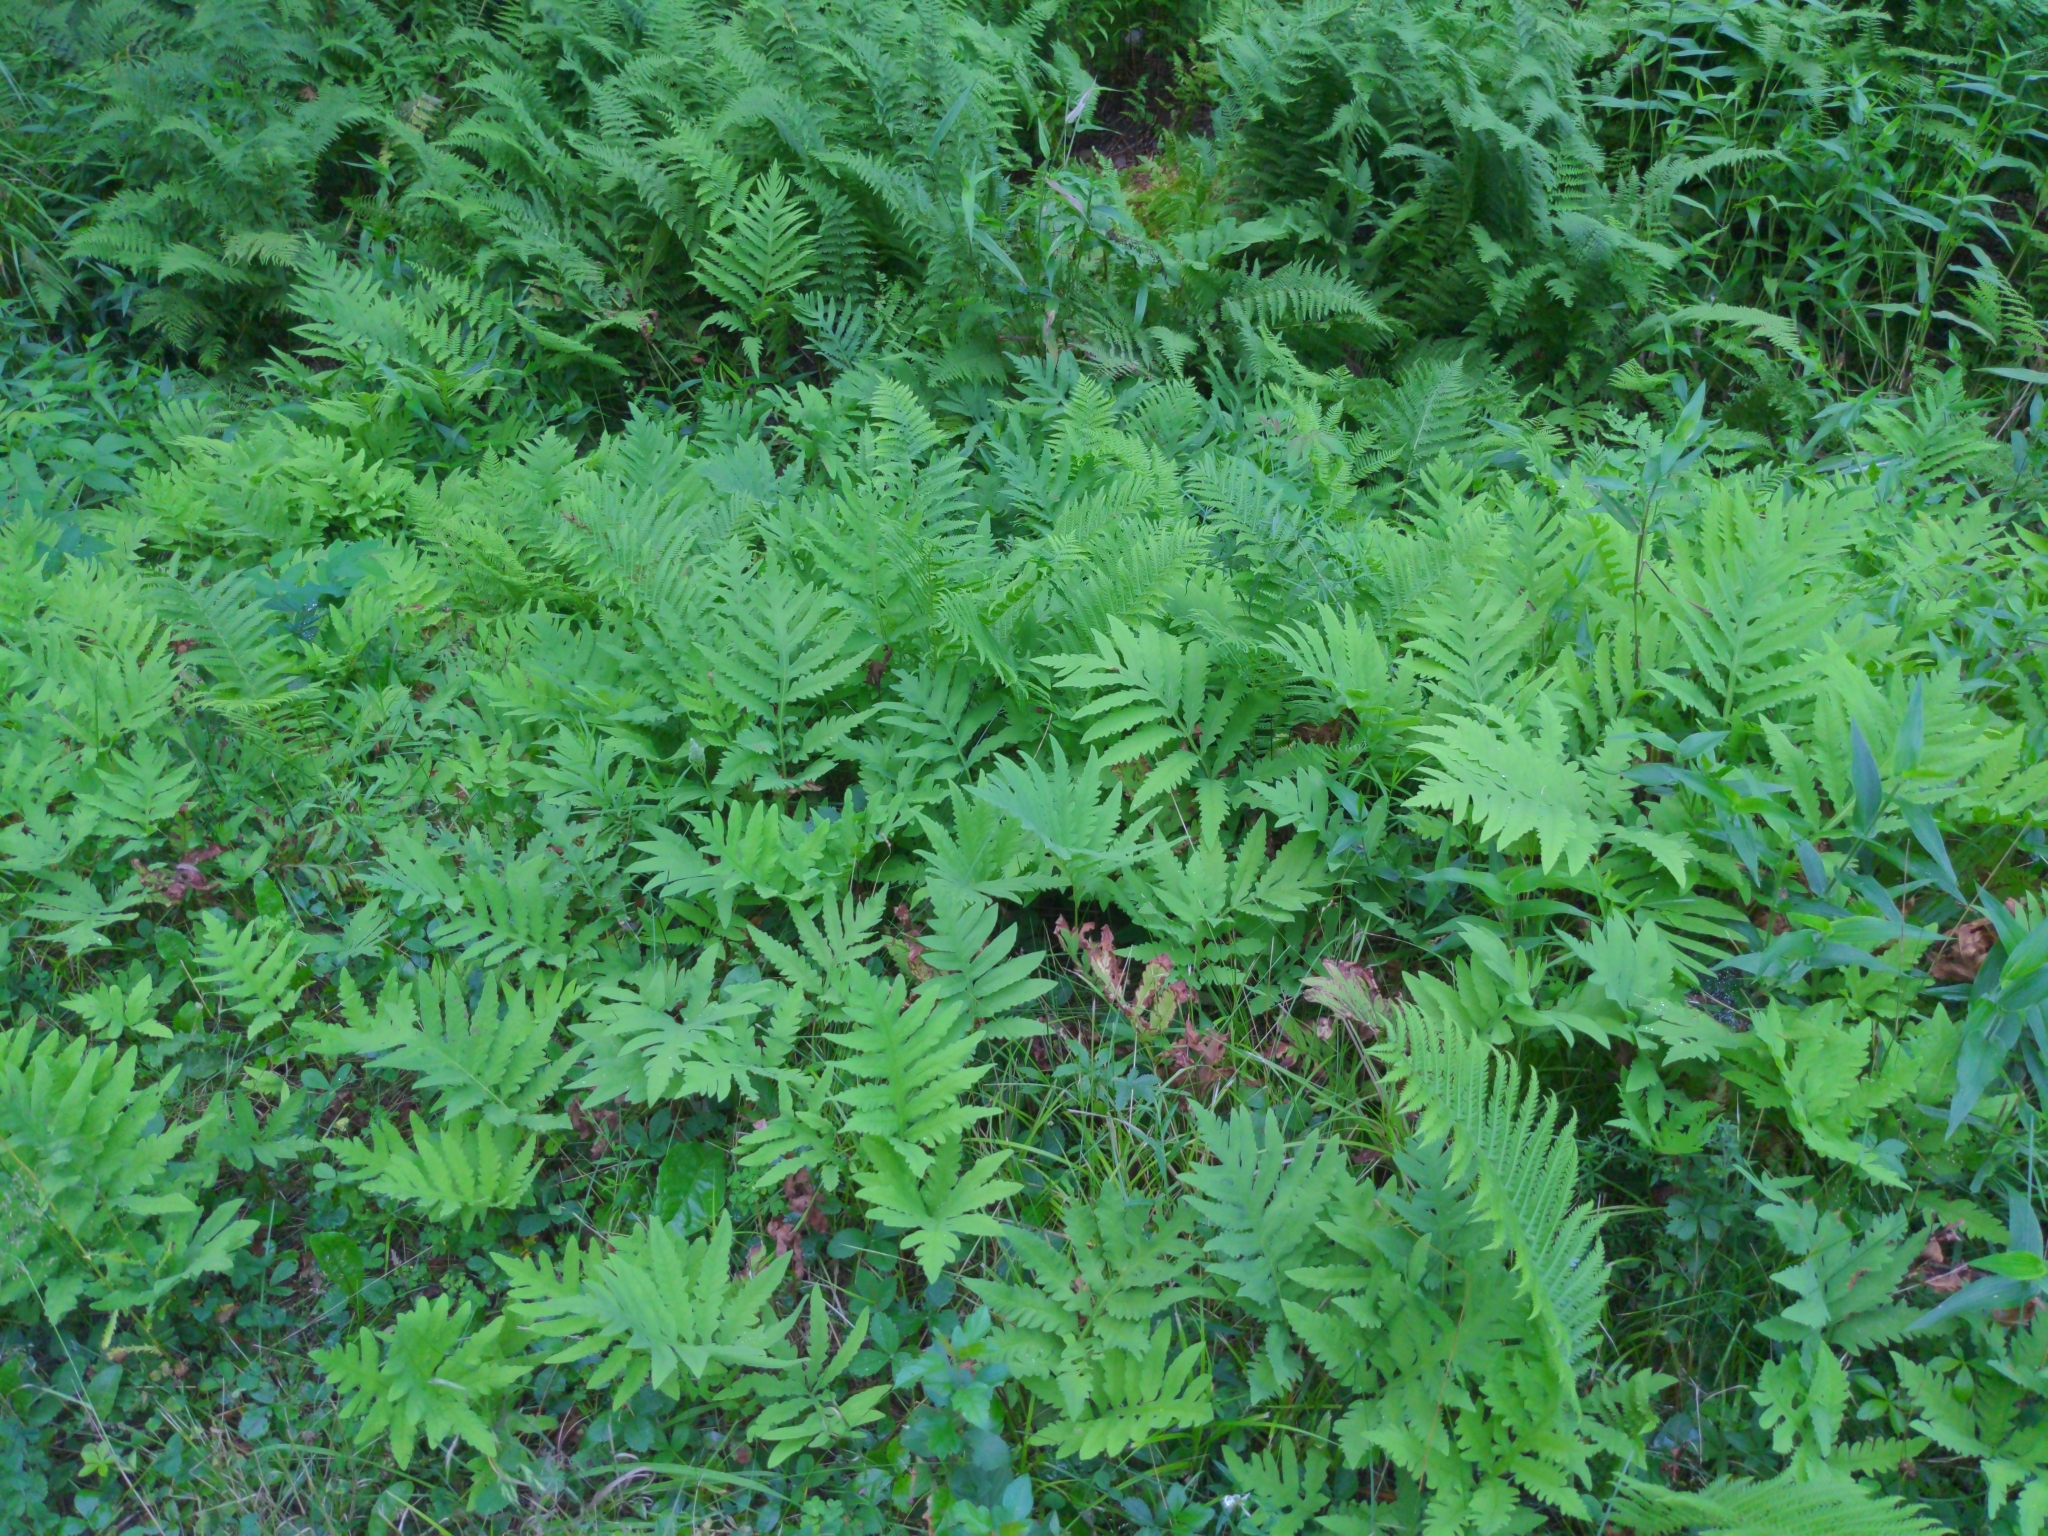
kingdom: Plantae
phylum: Tracheophyta
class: Polypodiopsida
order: Polypodiales
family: Onocleaceae
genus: Onoclea
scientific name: Onoclea sensibilis
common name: Sensitive fern
